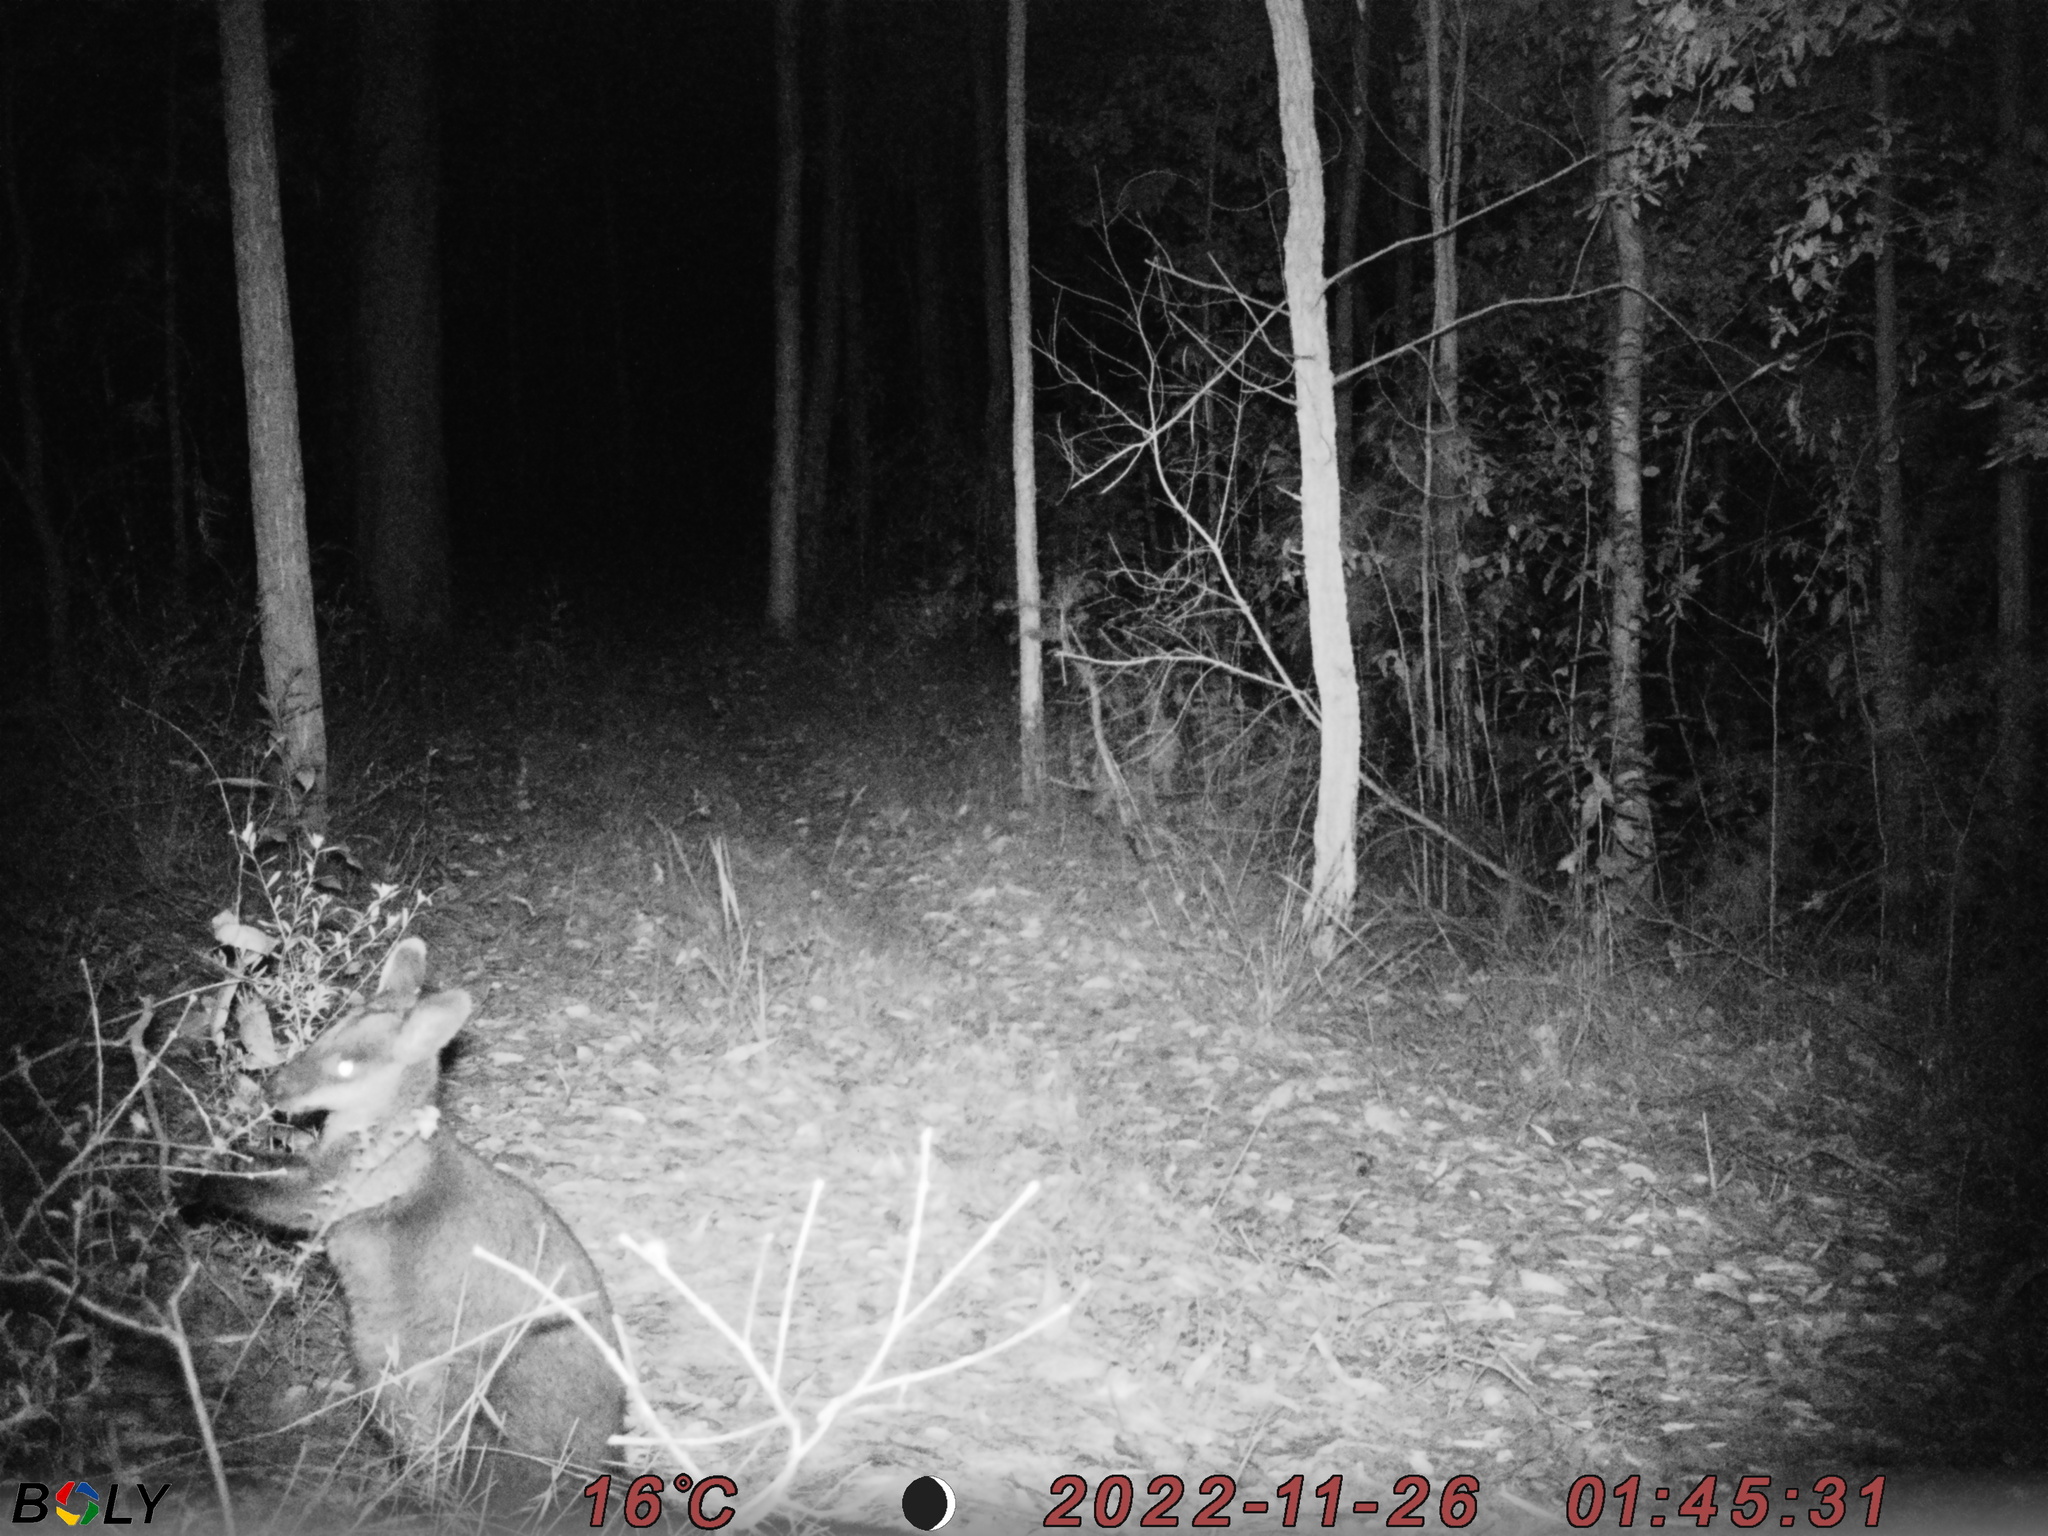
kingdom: Animalia
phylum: Chordata
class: Mammalia
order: Diprotodontia
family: Macropodidae
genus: Wallabia
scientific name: Wallabia bicolor
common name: Swamp wallaby
